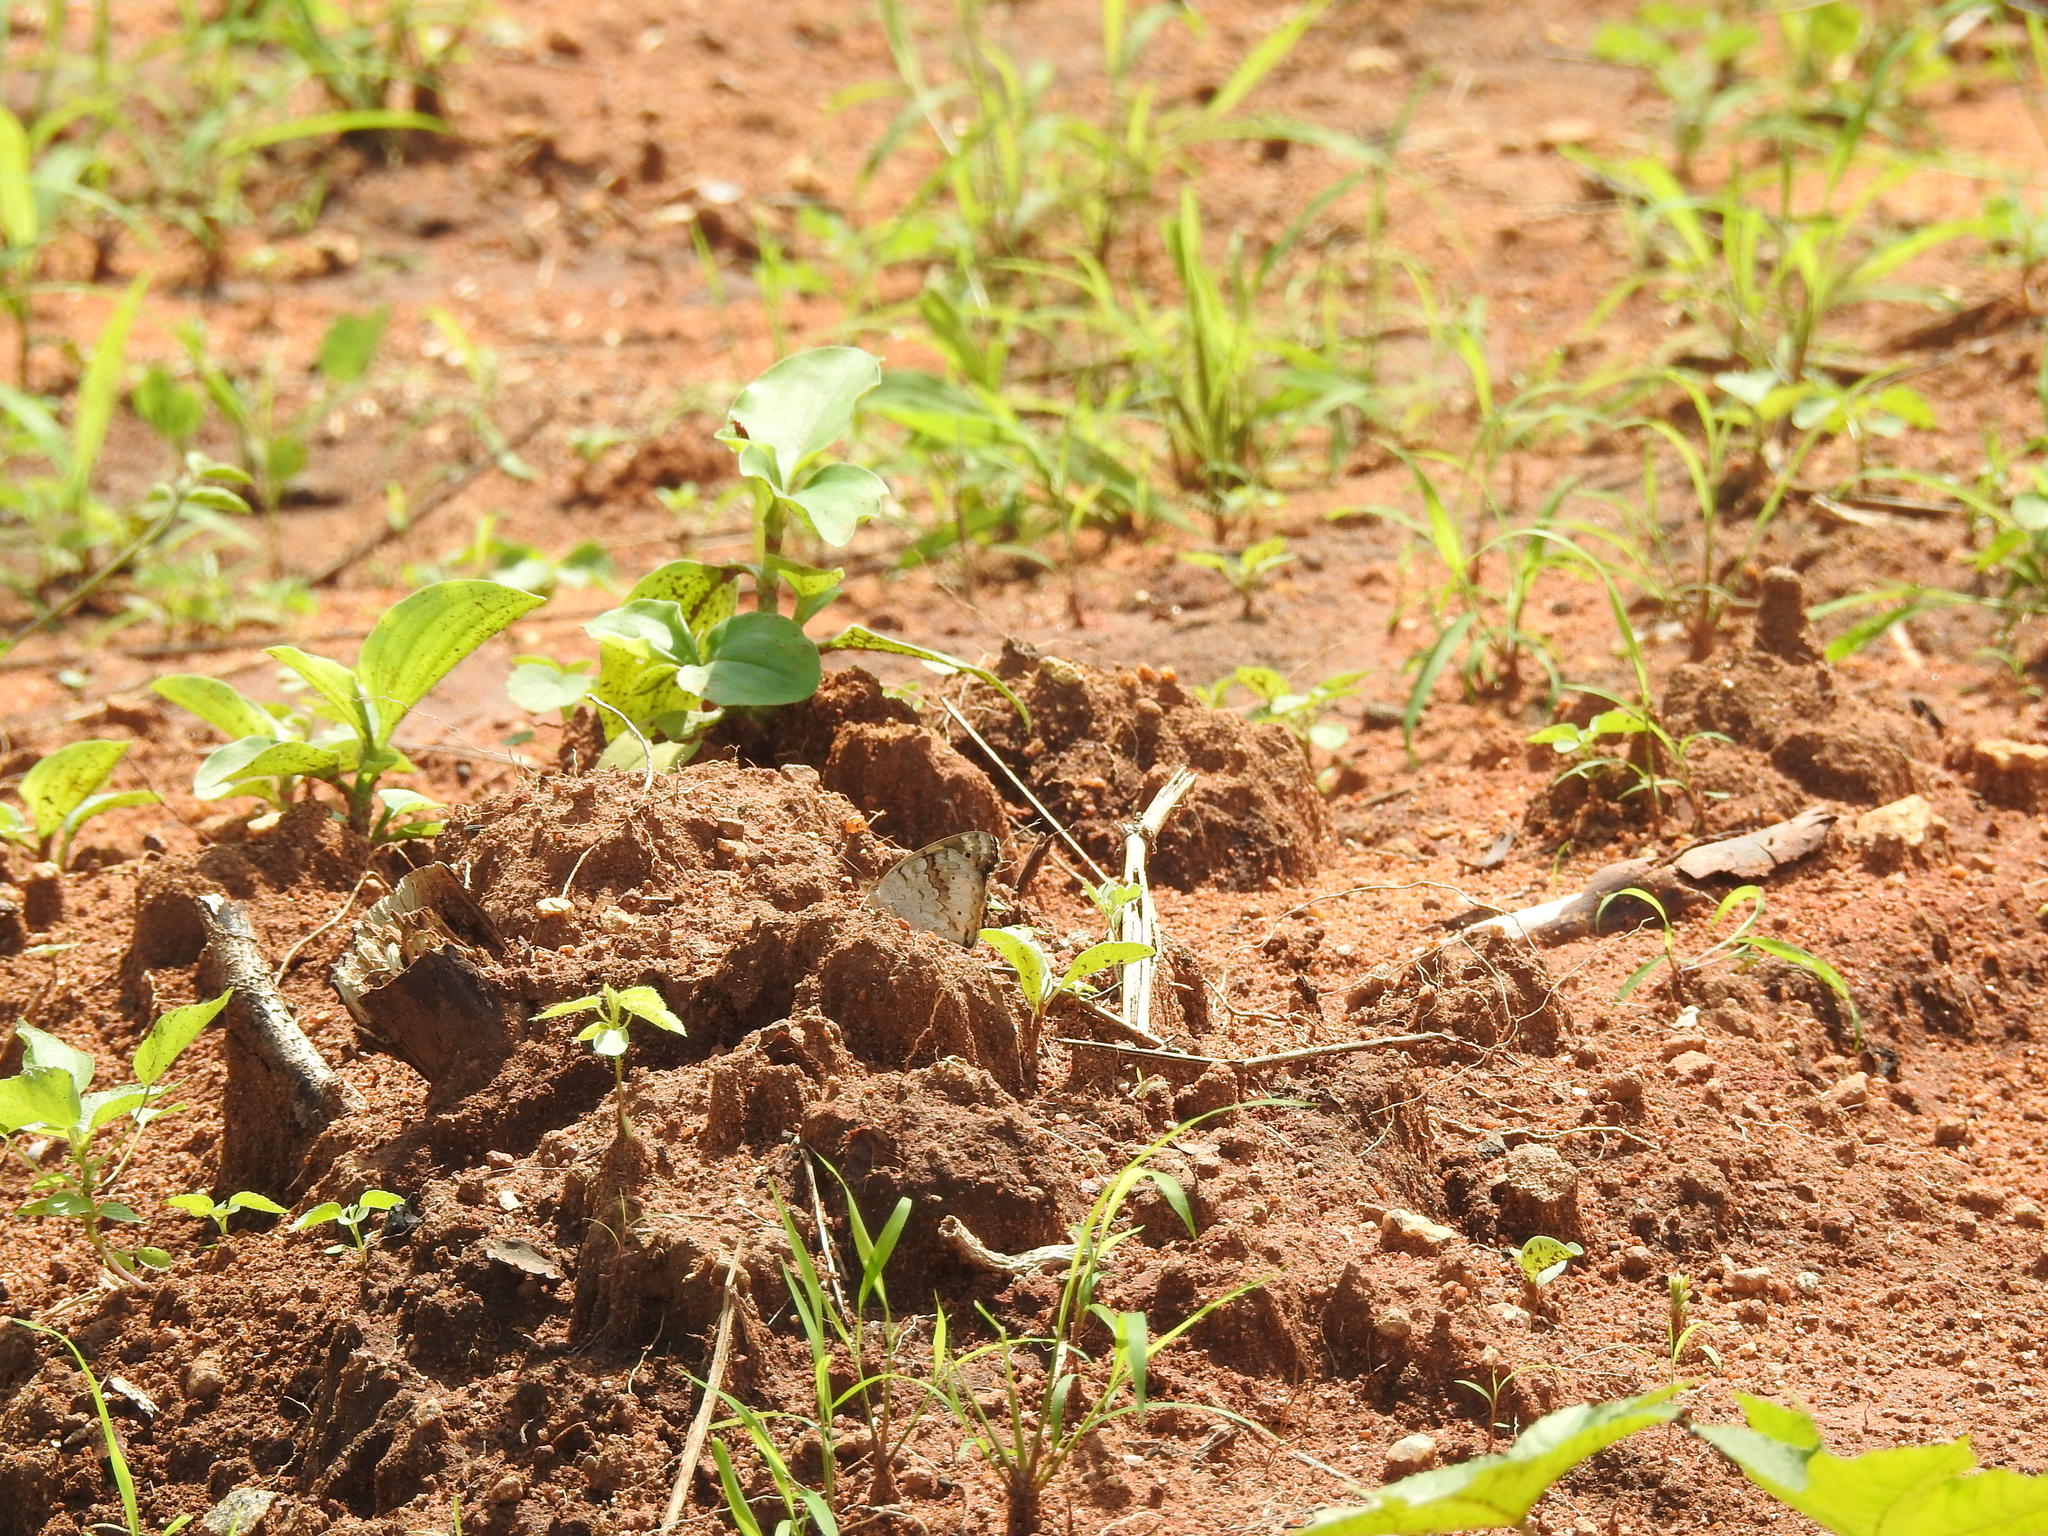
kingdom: Animalia
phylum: Arthropoda
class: Insecta
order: Lepidoptera
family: Nymphalidae
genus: Junonia
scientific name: Junonia hierta
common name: Yellow pansy
